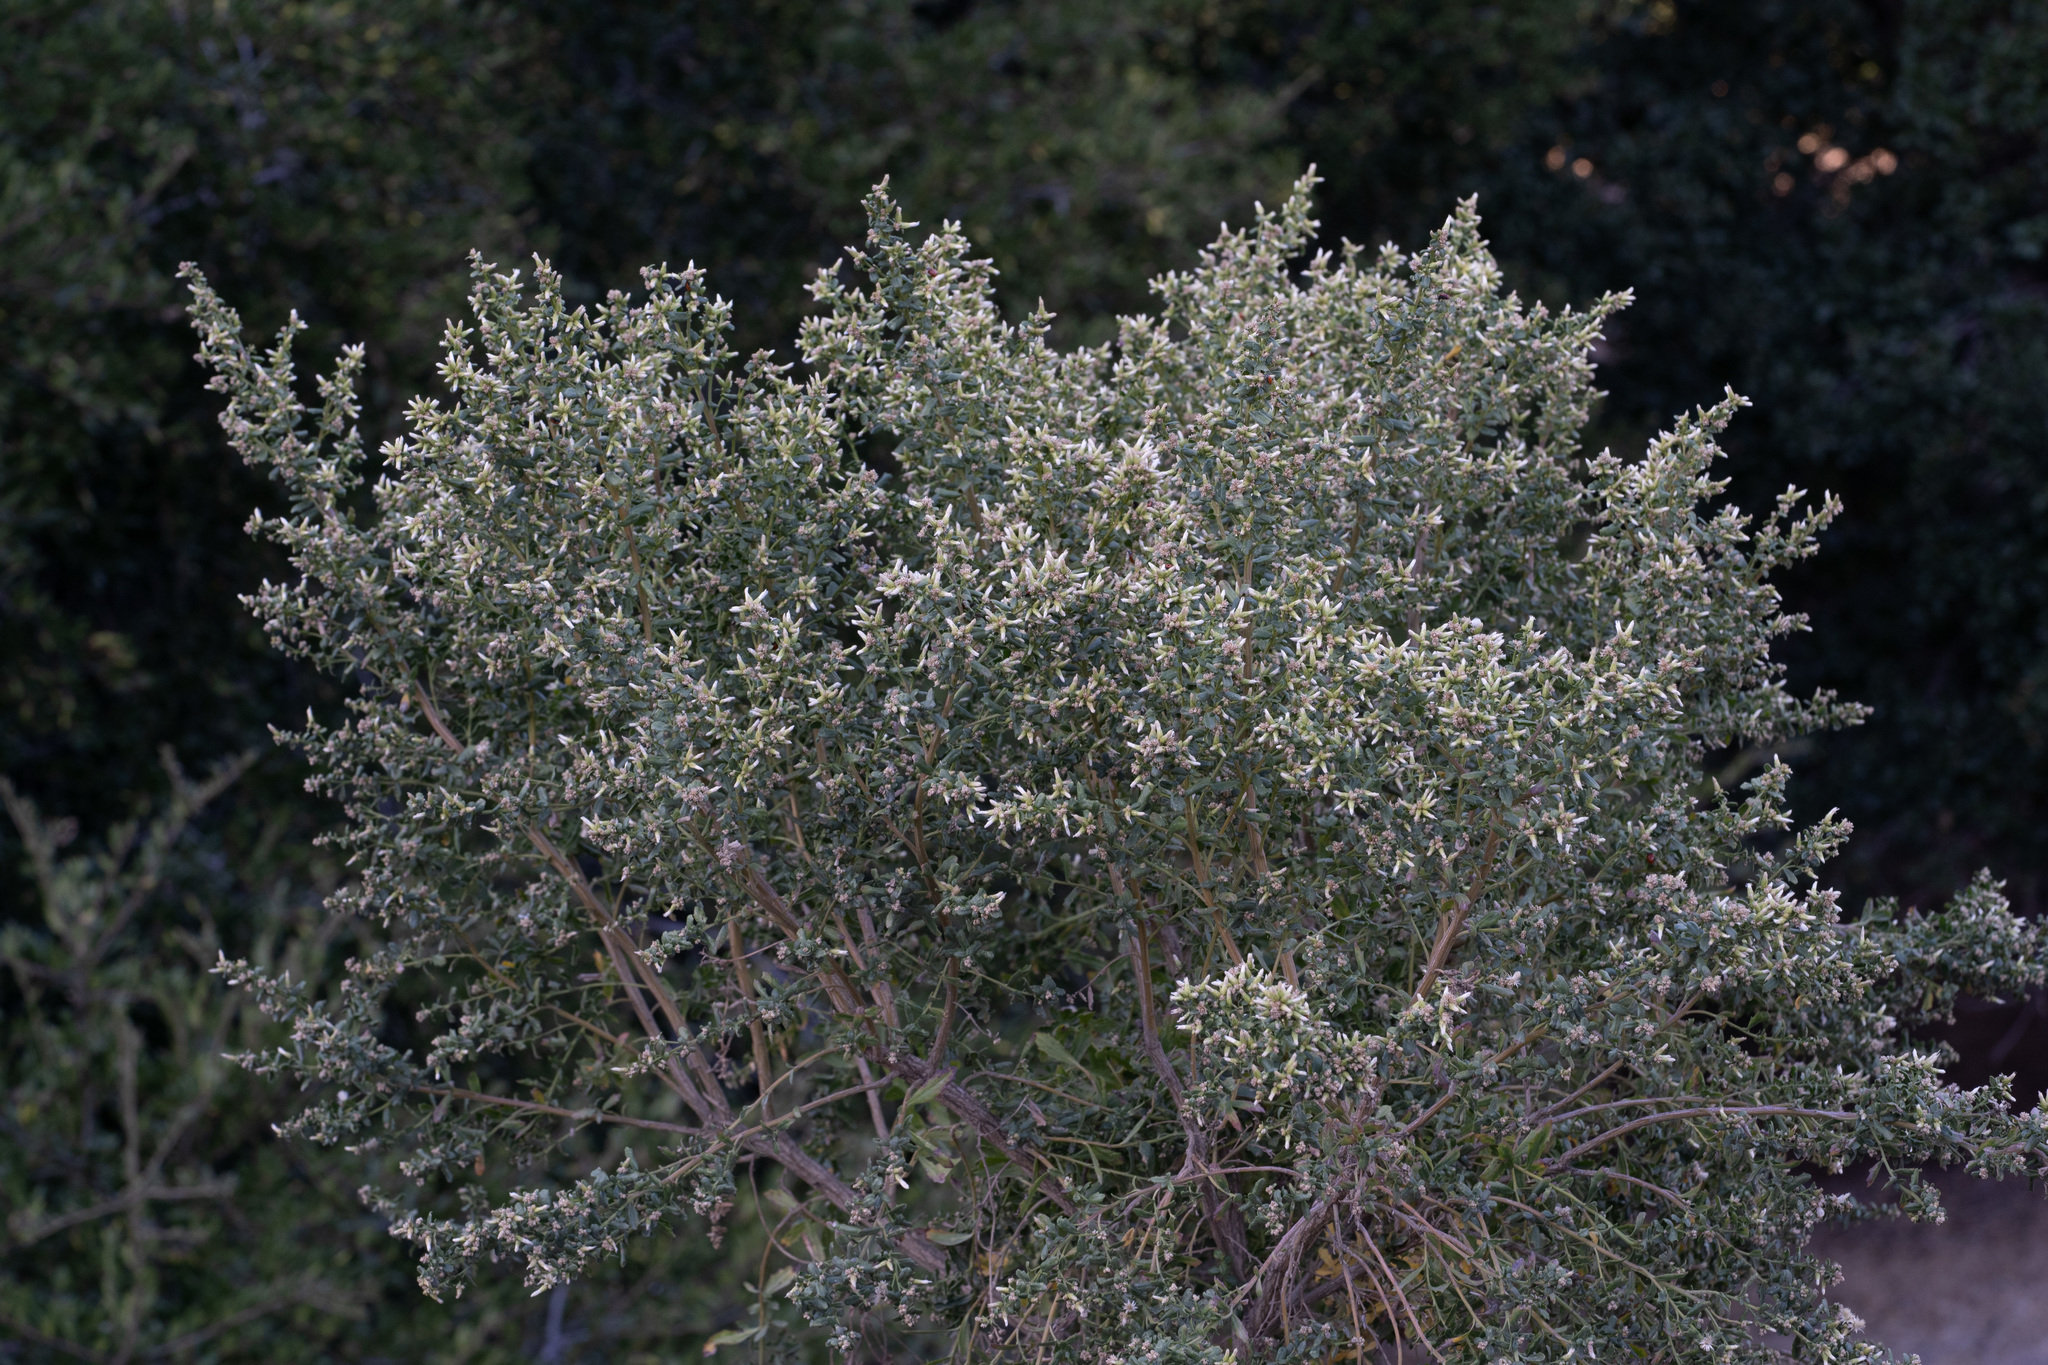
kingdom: Plantae
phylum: Tracheophyta
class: Magnoliopsida
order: Asterales
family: Asteraceae
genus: Baccharis
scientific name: Baccharis pilularis
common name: Coyotebrush
